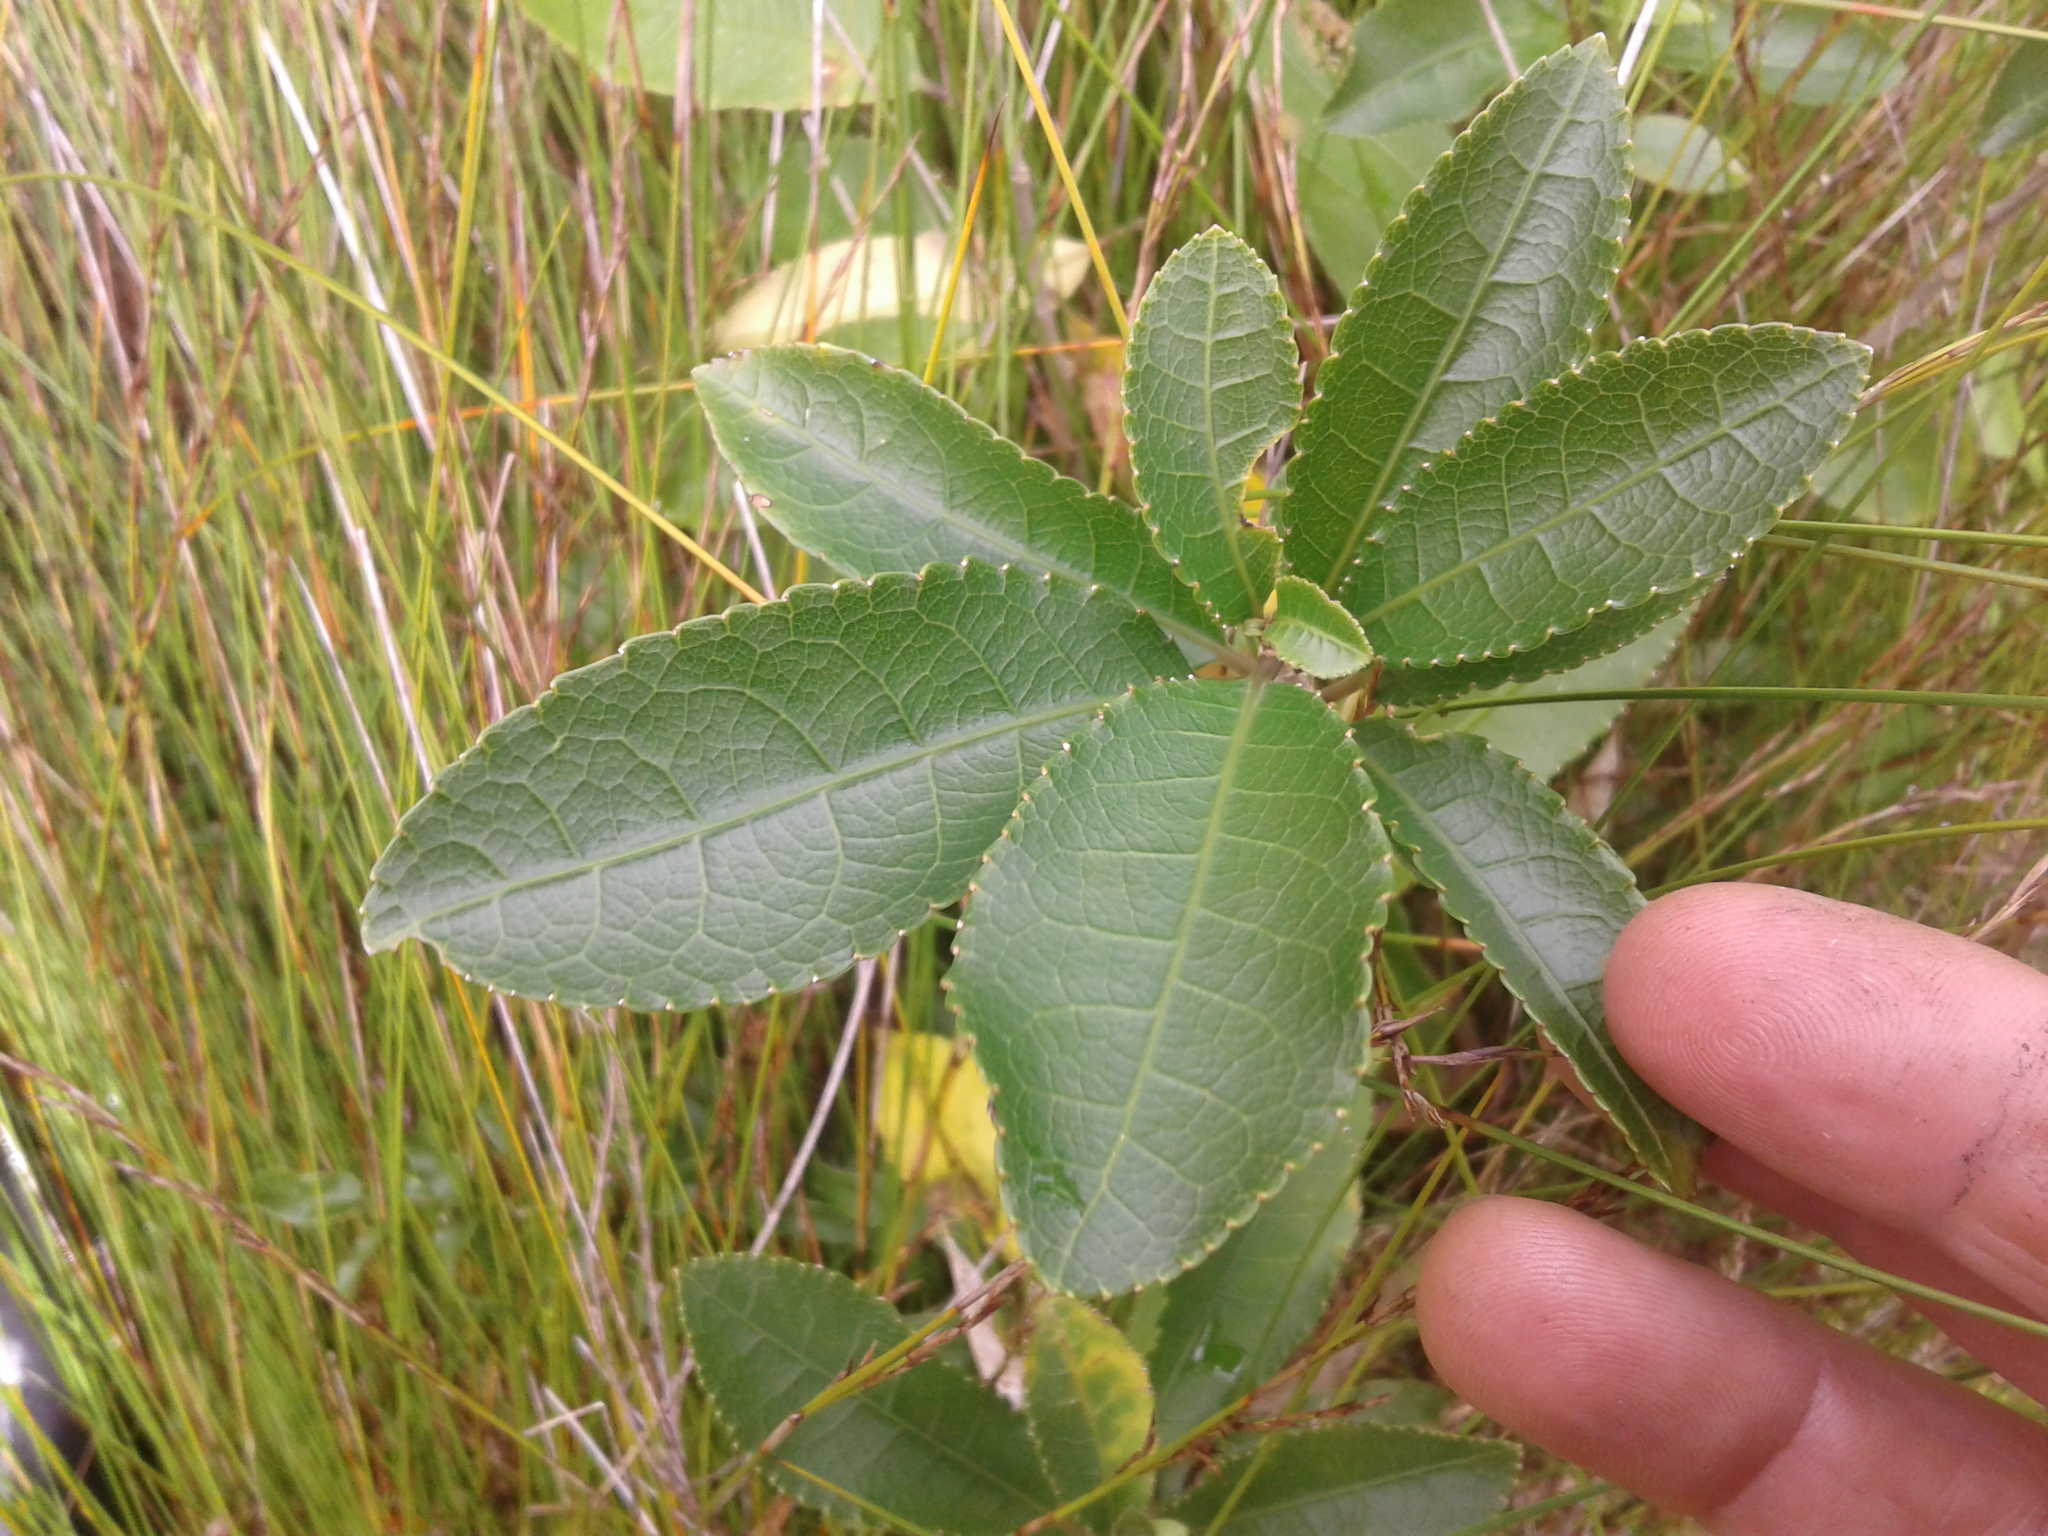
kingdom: Plantae
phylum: Tracheophyta
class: Magnoliopsida
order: Malpighiales
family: Violaceae
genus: Melicytus
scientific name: Melicytus ramiflorus
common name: Mahoe
